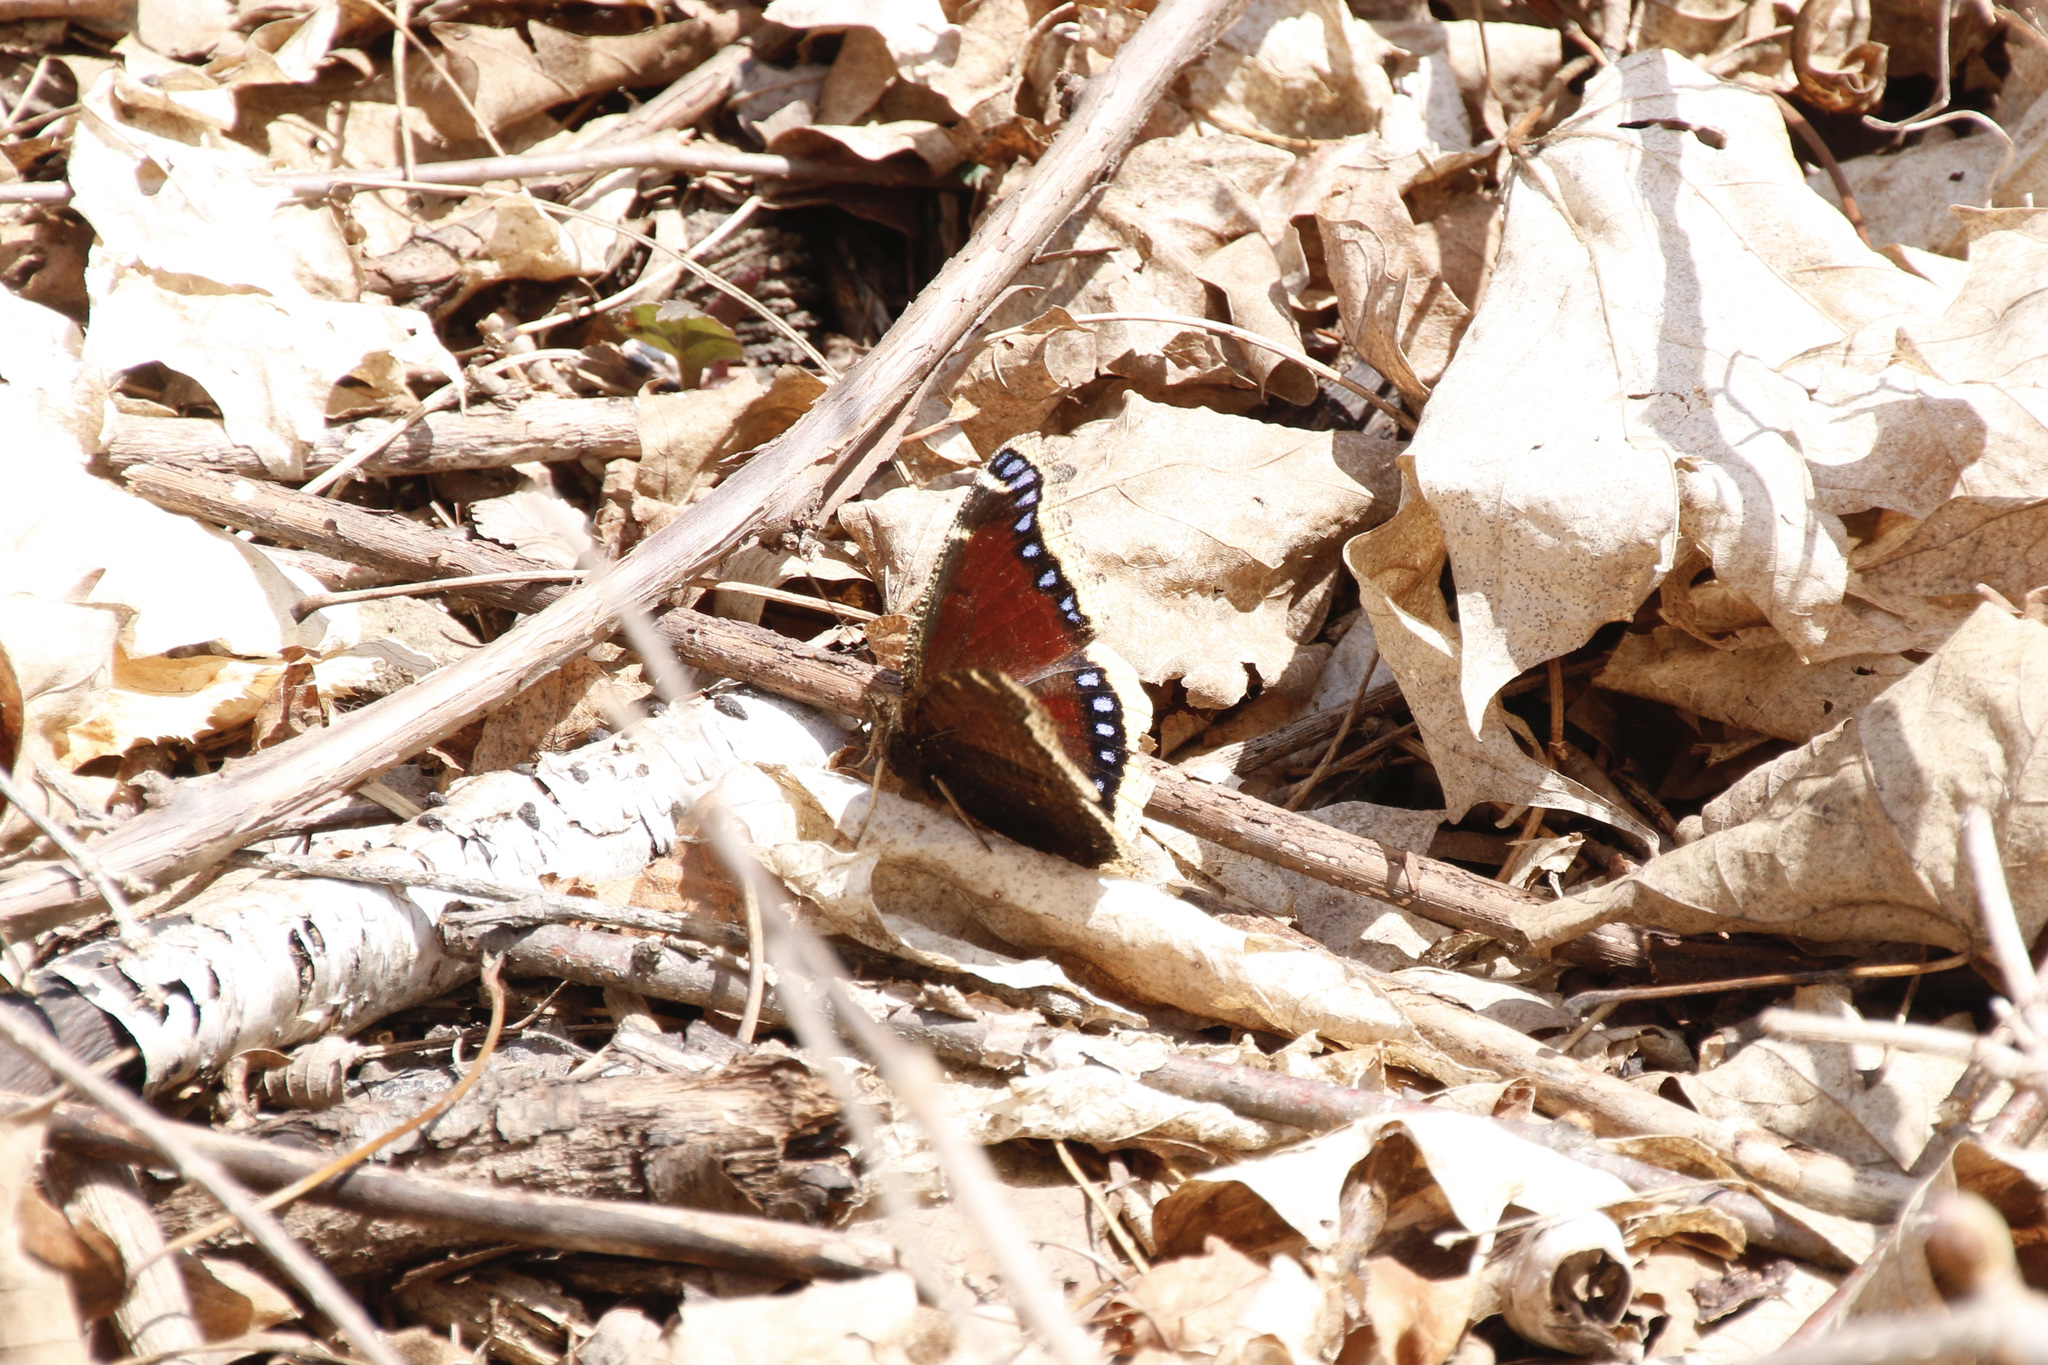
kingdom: Animalia
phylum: Arthropoda
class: Insecta
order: Lepidoptera
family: Nymphalidae
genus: Nymphalis
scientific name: Nymphalis antiopa
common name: Camberwell beauty
